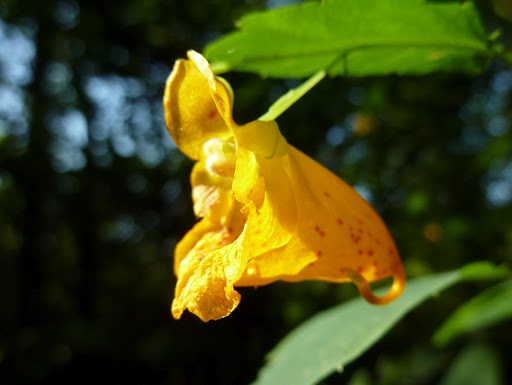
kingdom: Plantae
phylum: Tracheophyta
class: Magnoliopsida
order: Ericales
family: Balsaminaceae
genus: Impatiens
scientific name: Impatiens capensis
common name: Orange balsam
